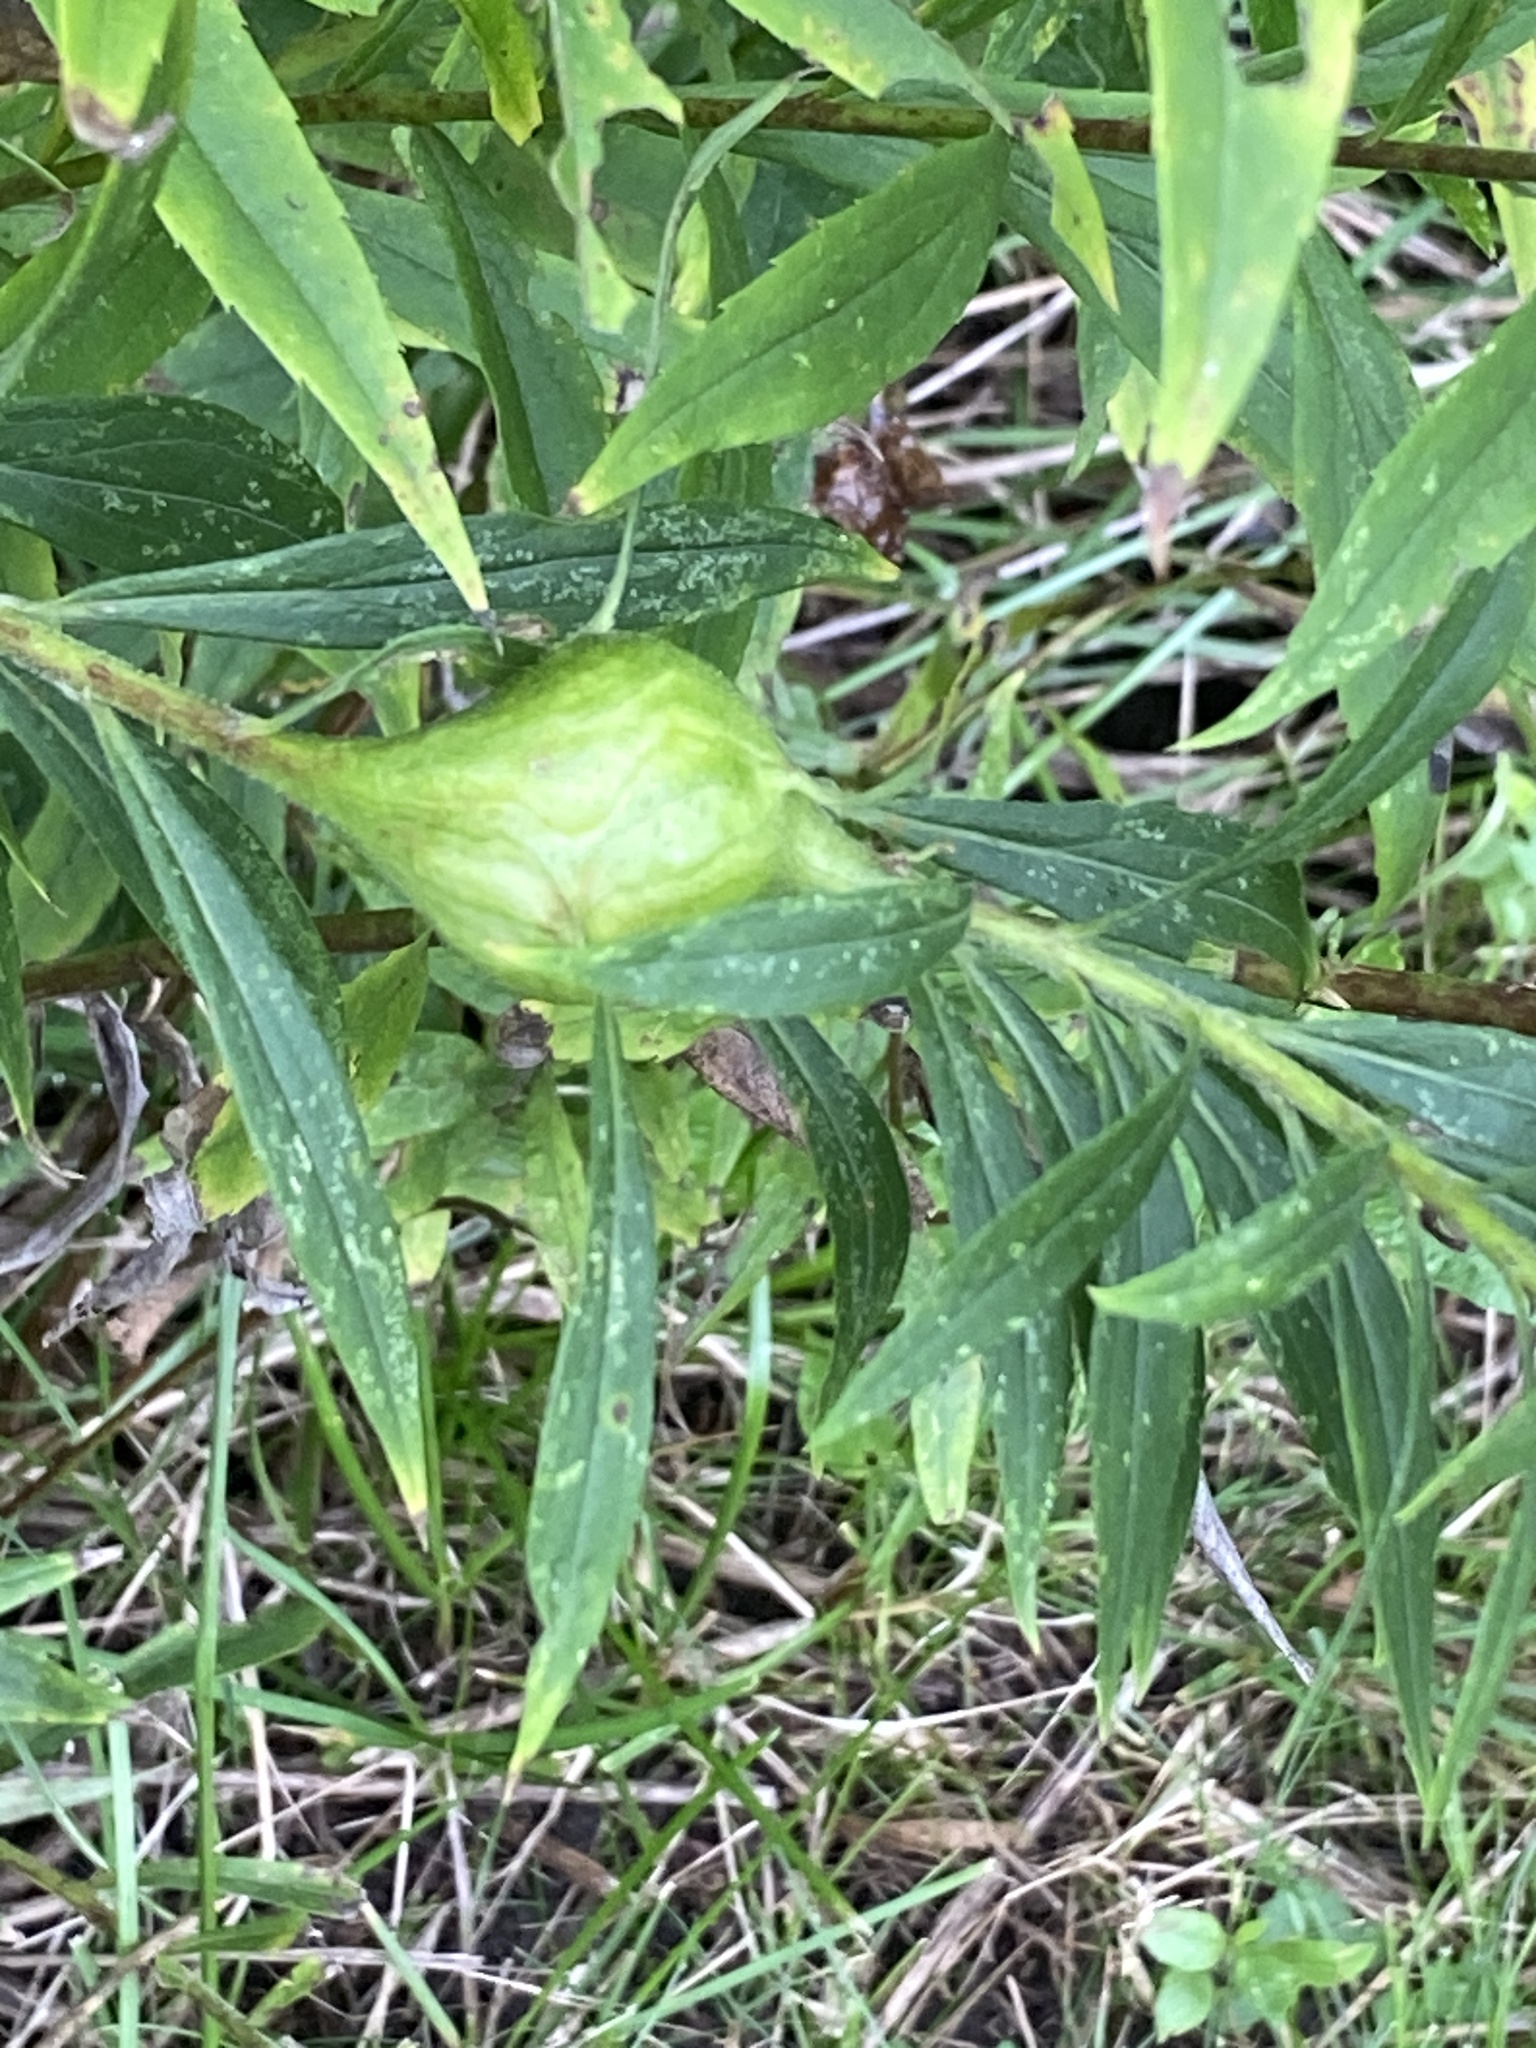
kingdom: Animalia
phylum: Arthropoda
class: Insecta
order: Diptera
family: Tephritidae
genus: Eurosta
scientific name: Eurosta solidaginis
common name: Goldenrod gall fly
